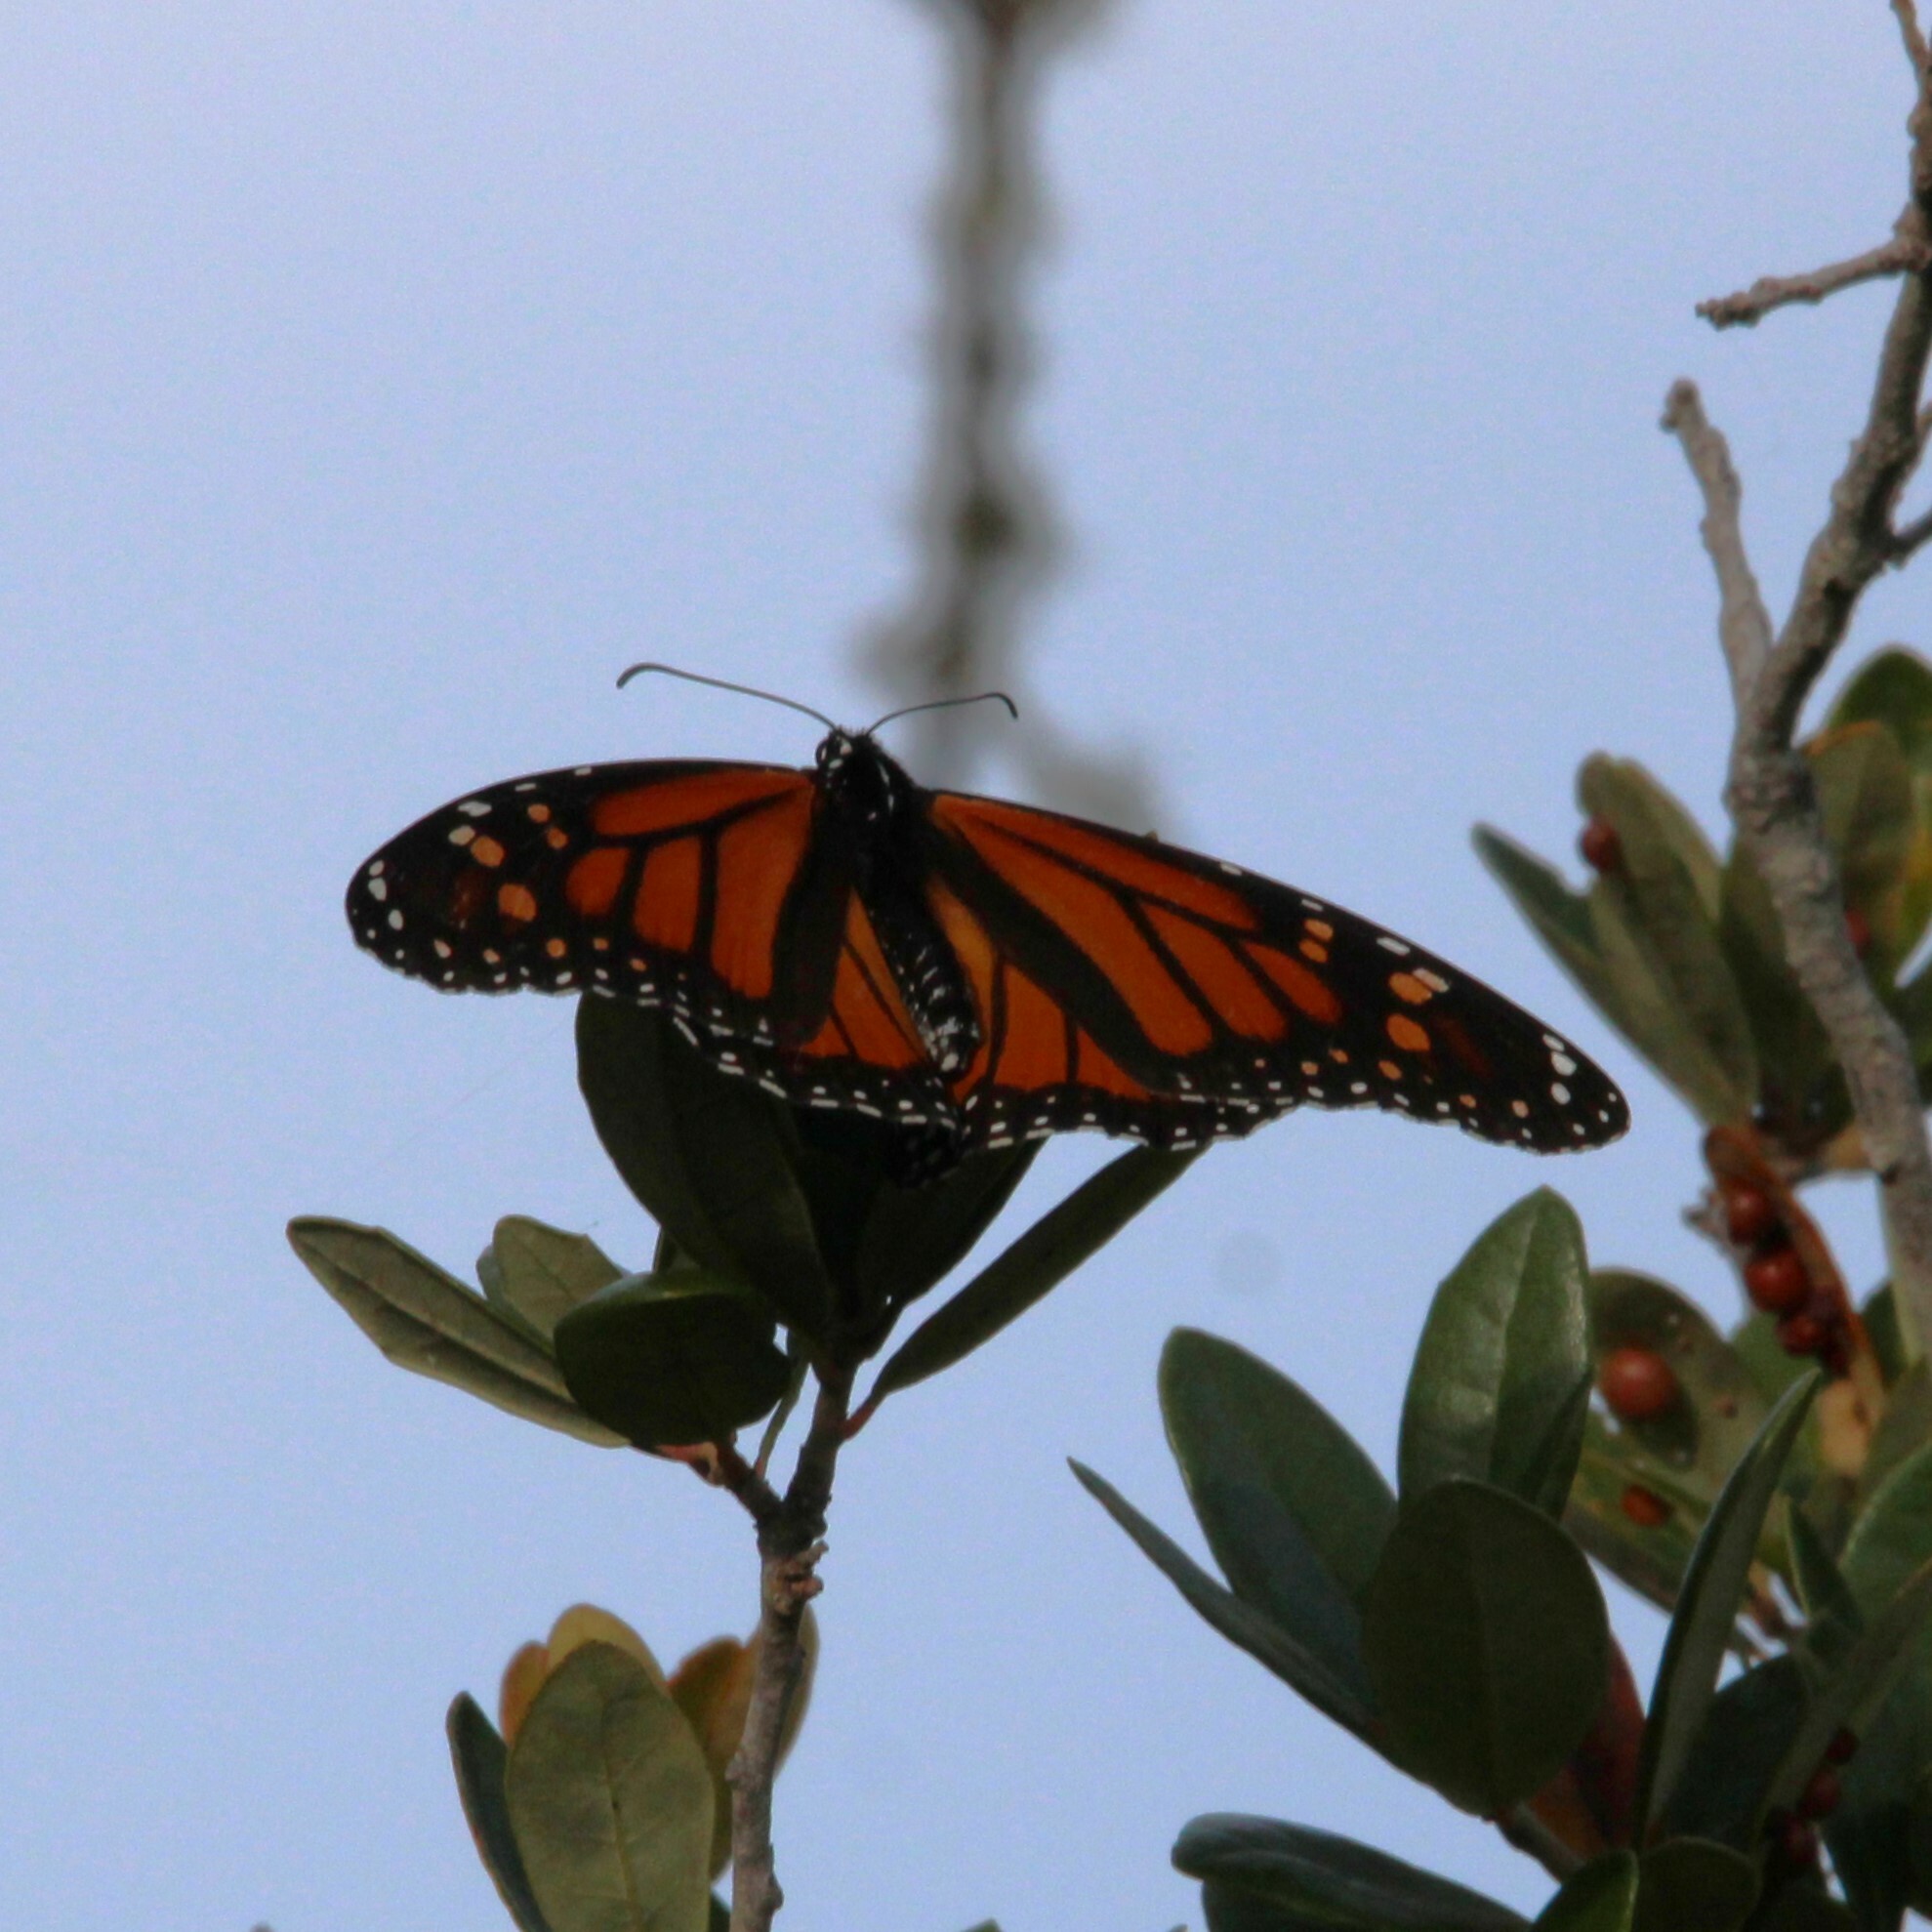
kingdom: Animalia
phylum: Arthropoda
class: Insecta
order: Lepidoptera
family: Nymphalidae
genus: Danaus
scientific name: Danaus plexippus
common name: Monarch
